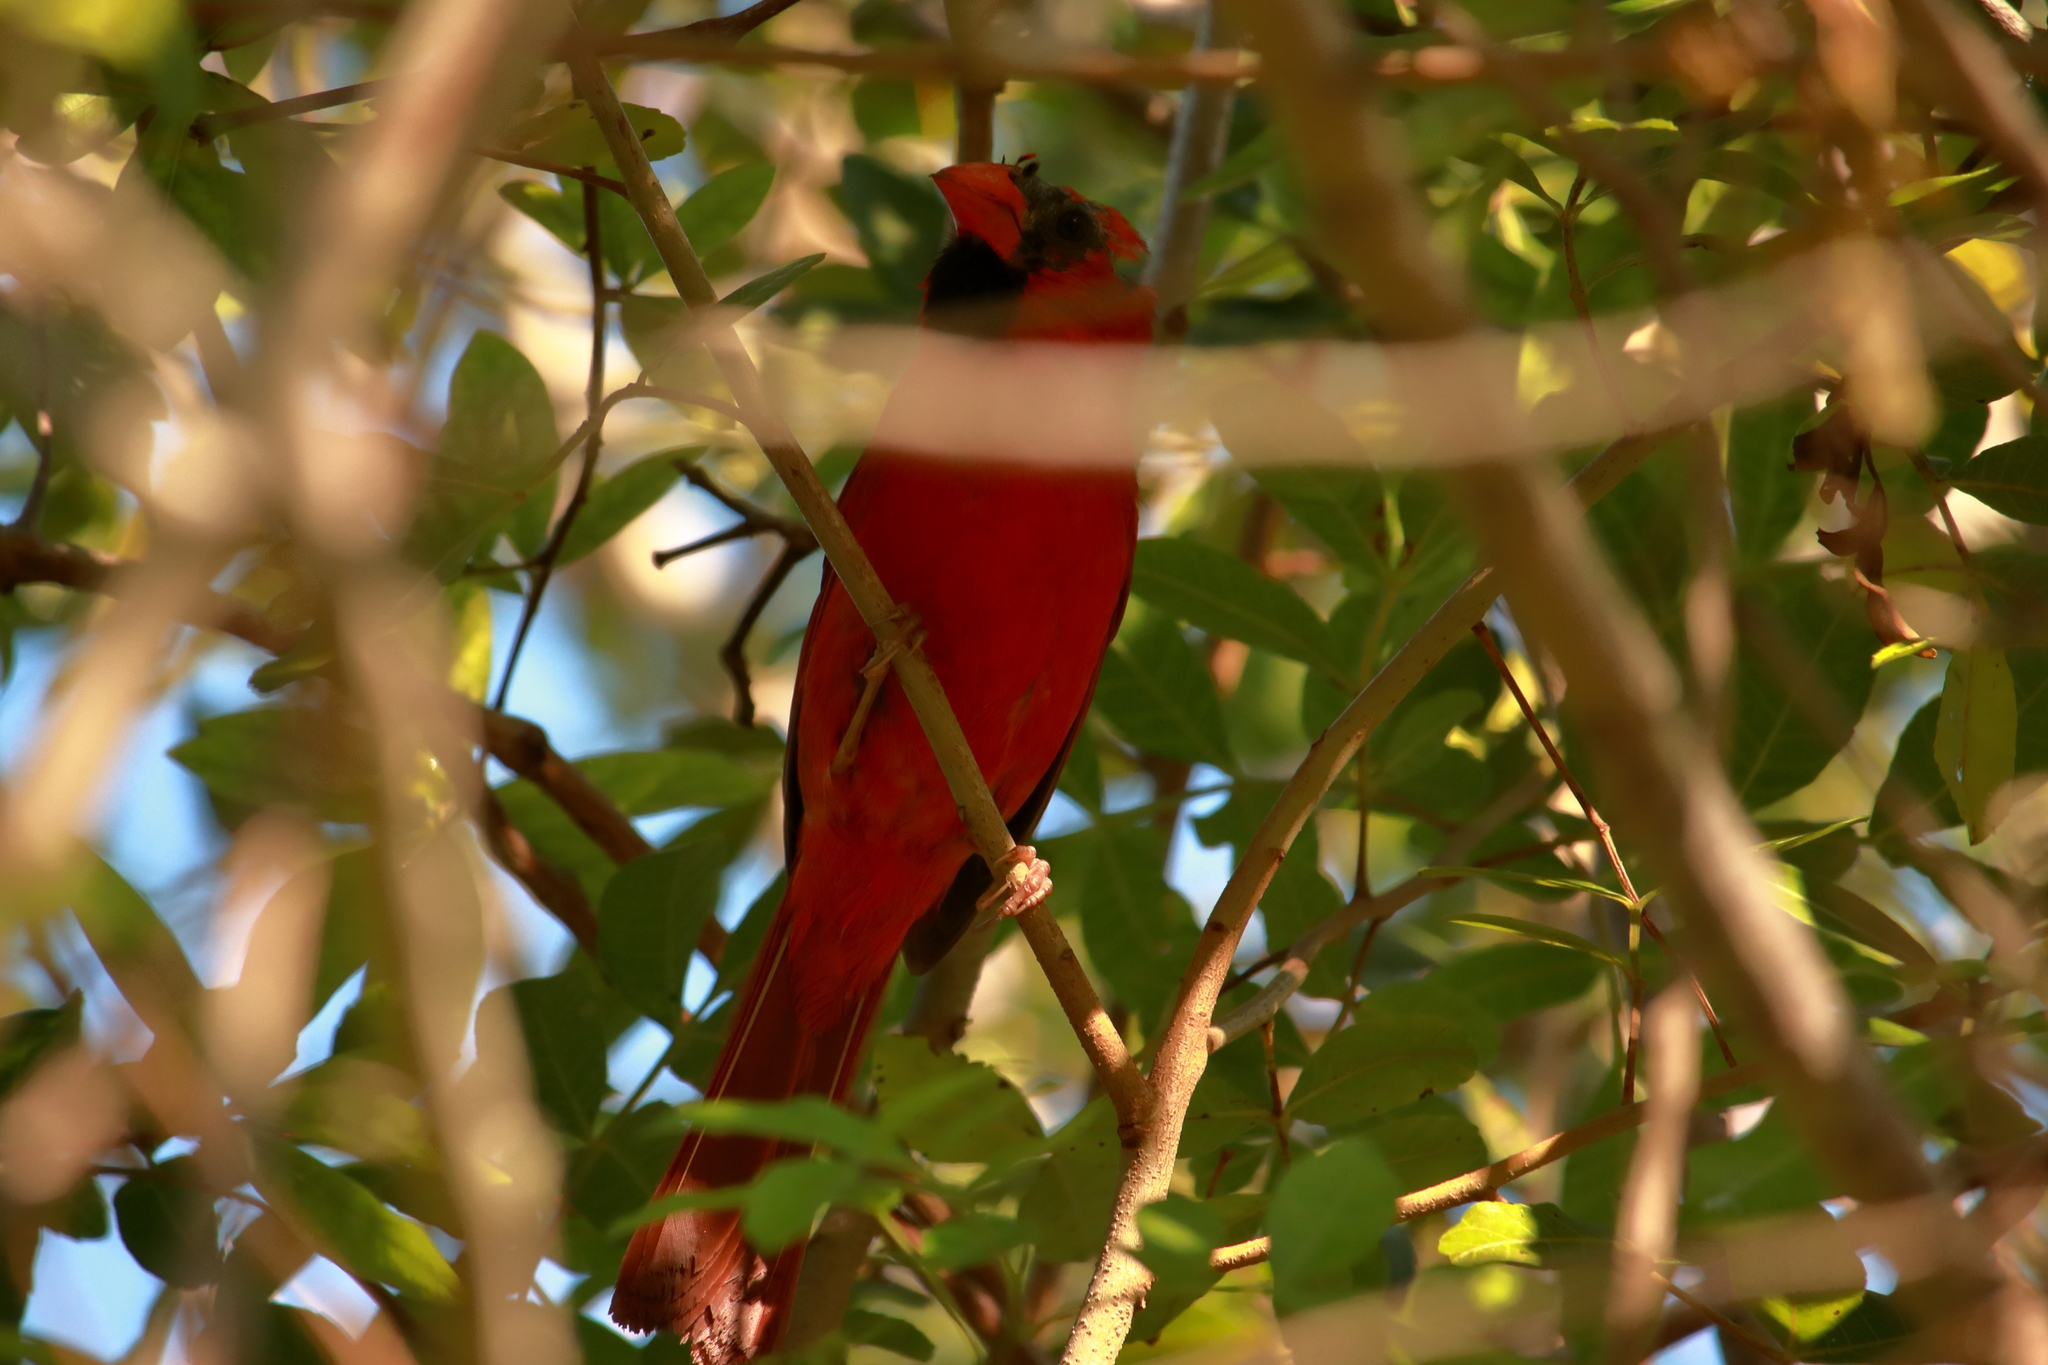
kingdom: Animalia
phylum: Chordata
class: Aves
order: Passeriformes
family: Cardinalidae
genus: Cardinalis
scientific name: Cardinalis cardinalis
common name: Northern cardinal
